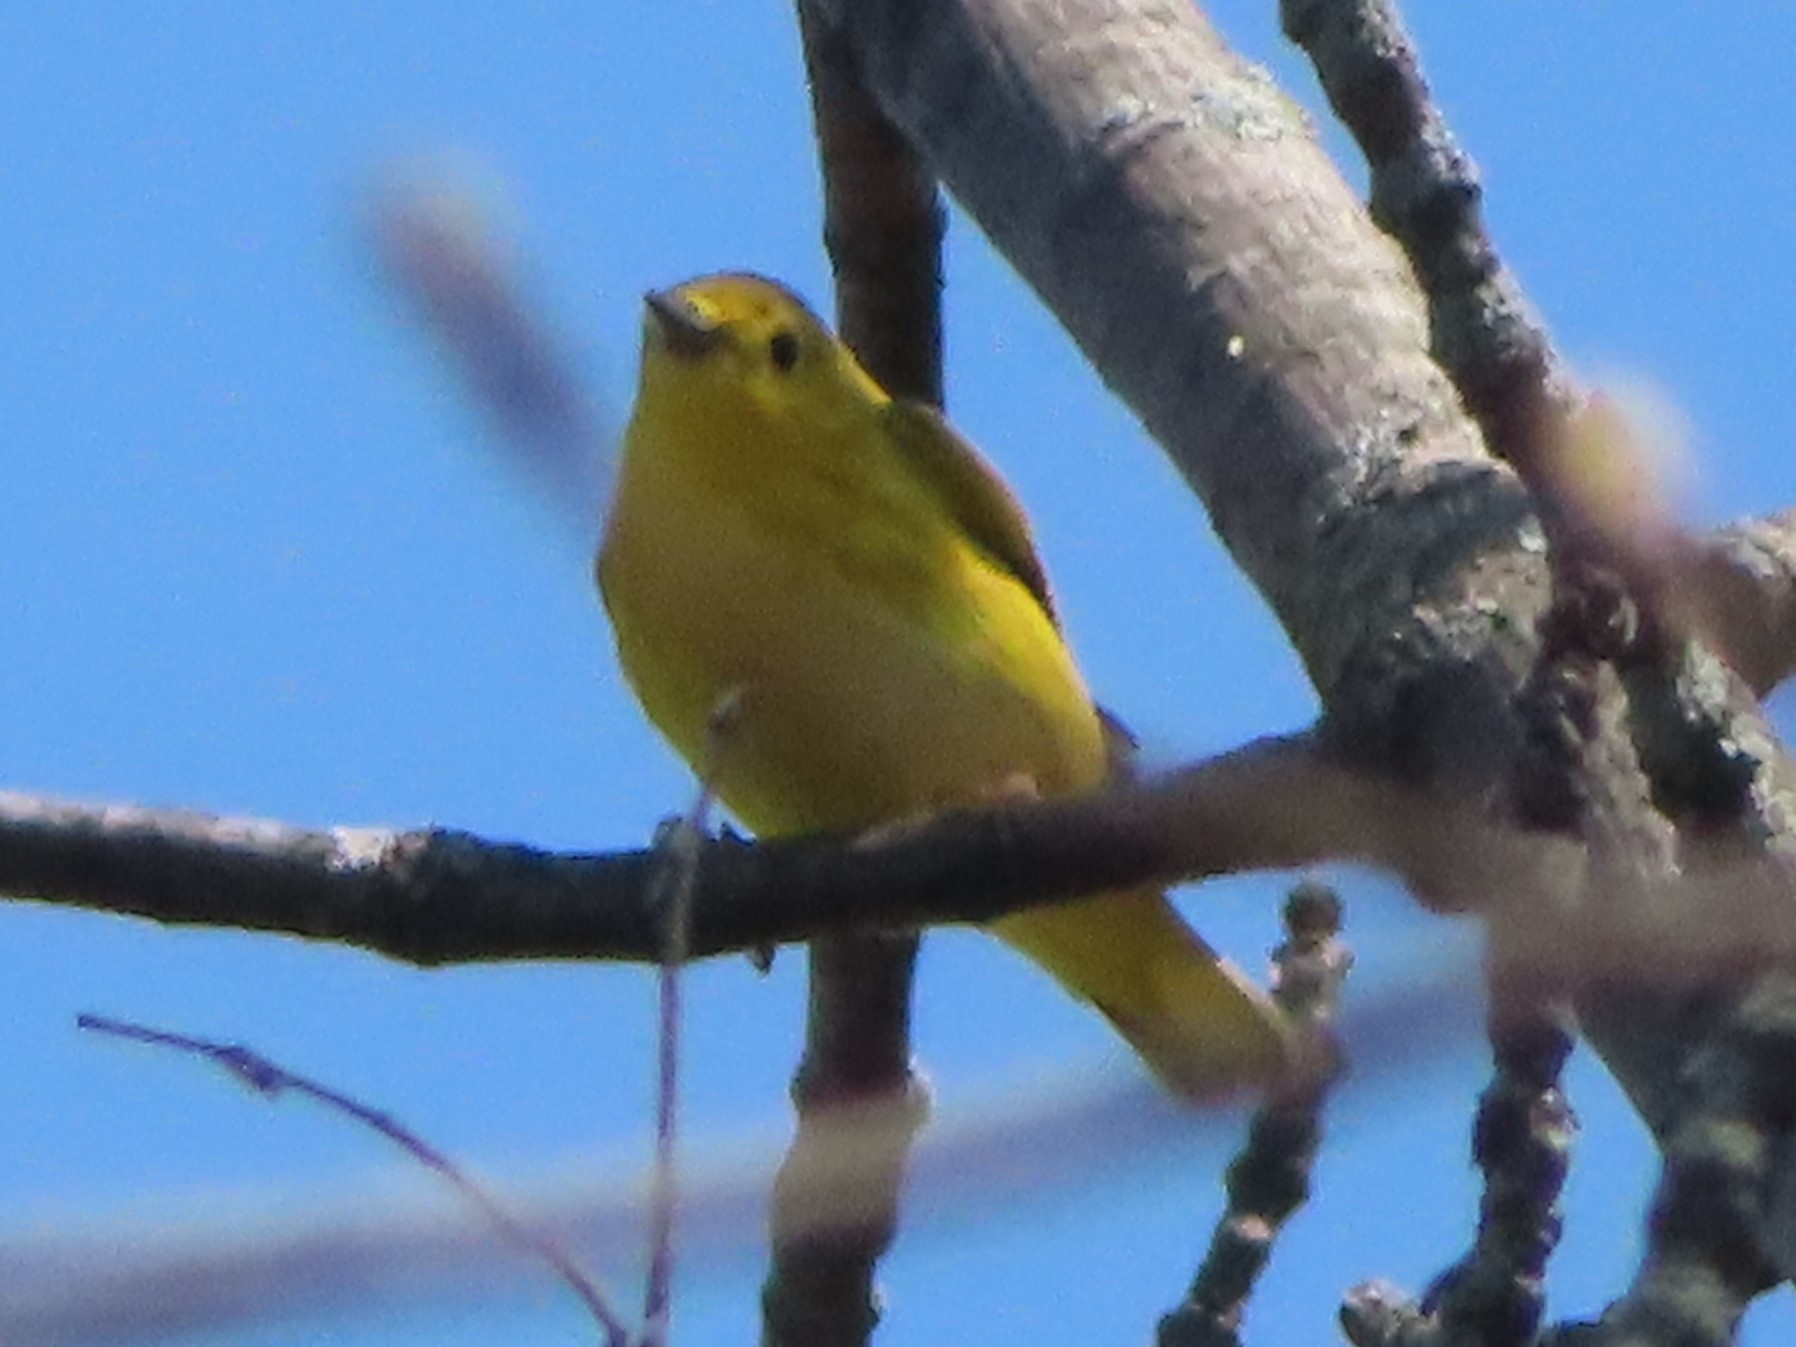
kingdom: Animalia
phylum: Chordata
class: Aves
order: Passeriformes
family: Parulidae
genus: Setophaga
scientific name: Setophaga petechia
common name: Yellow warbler
